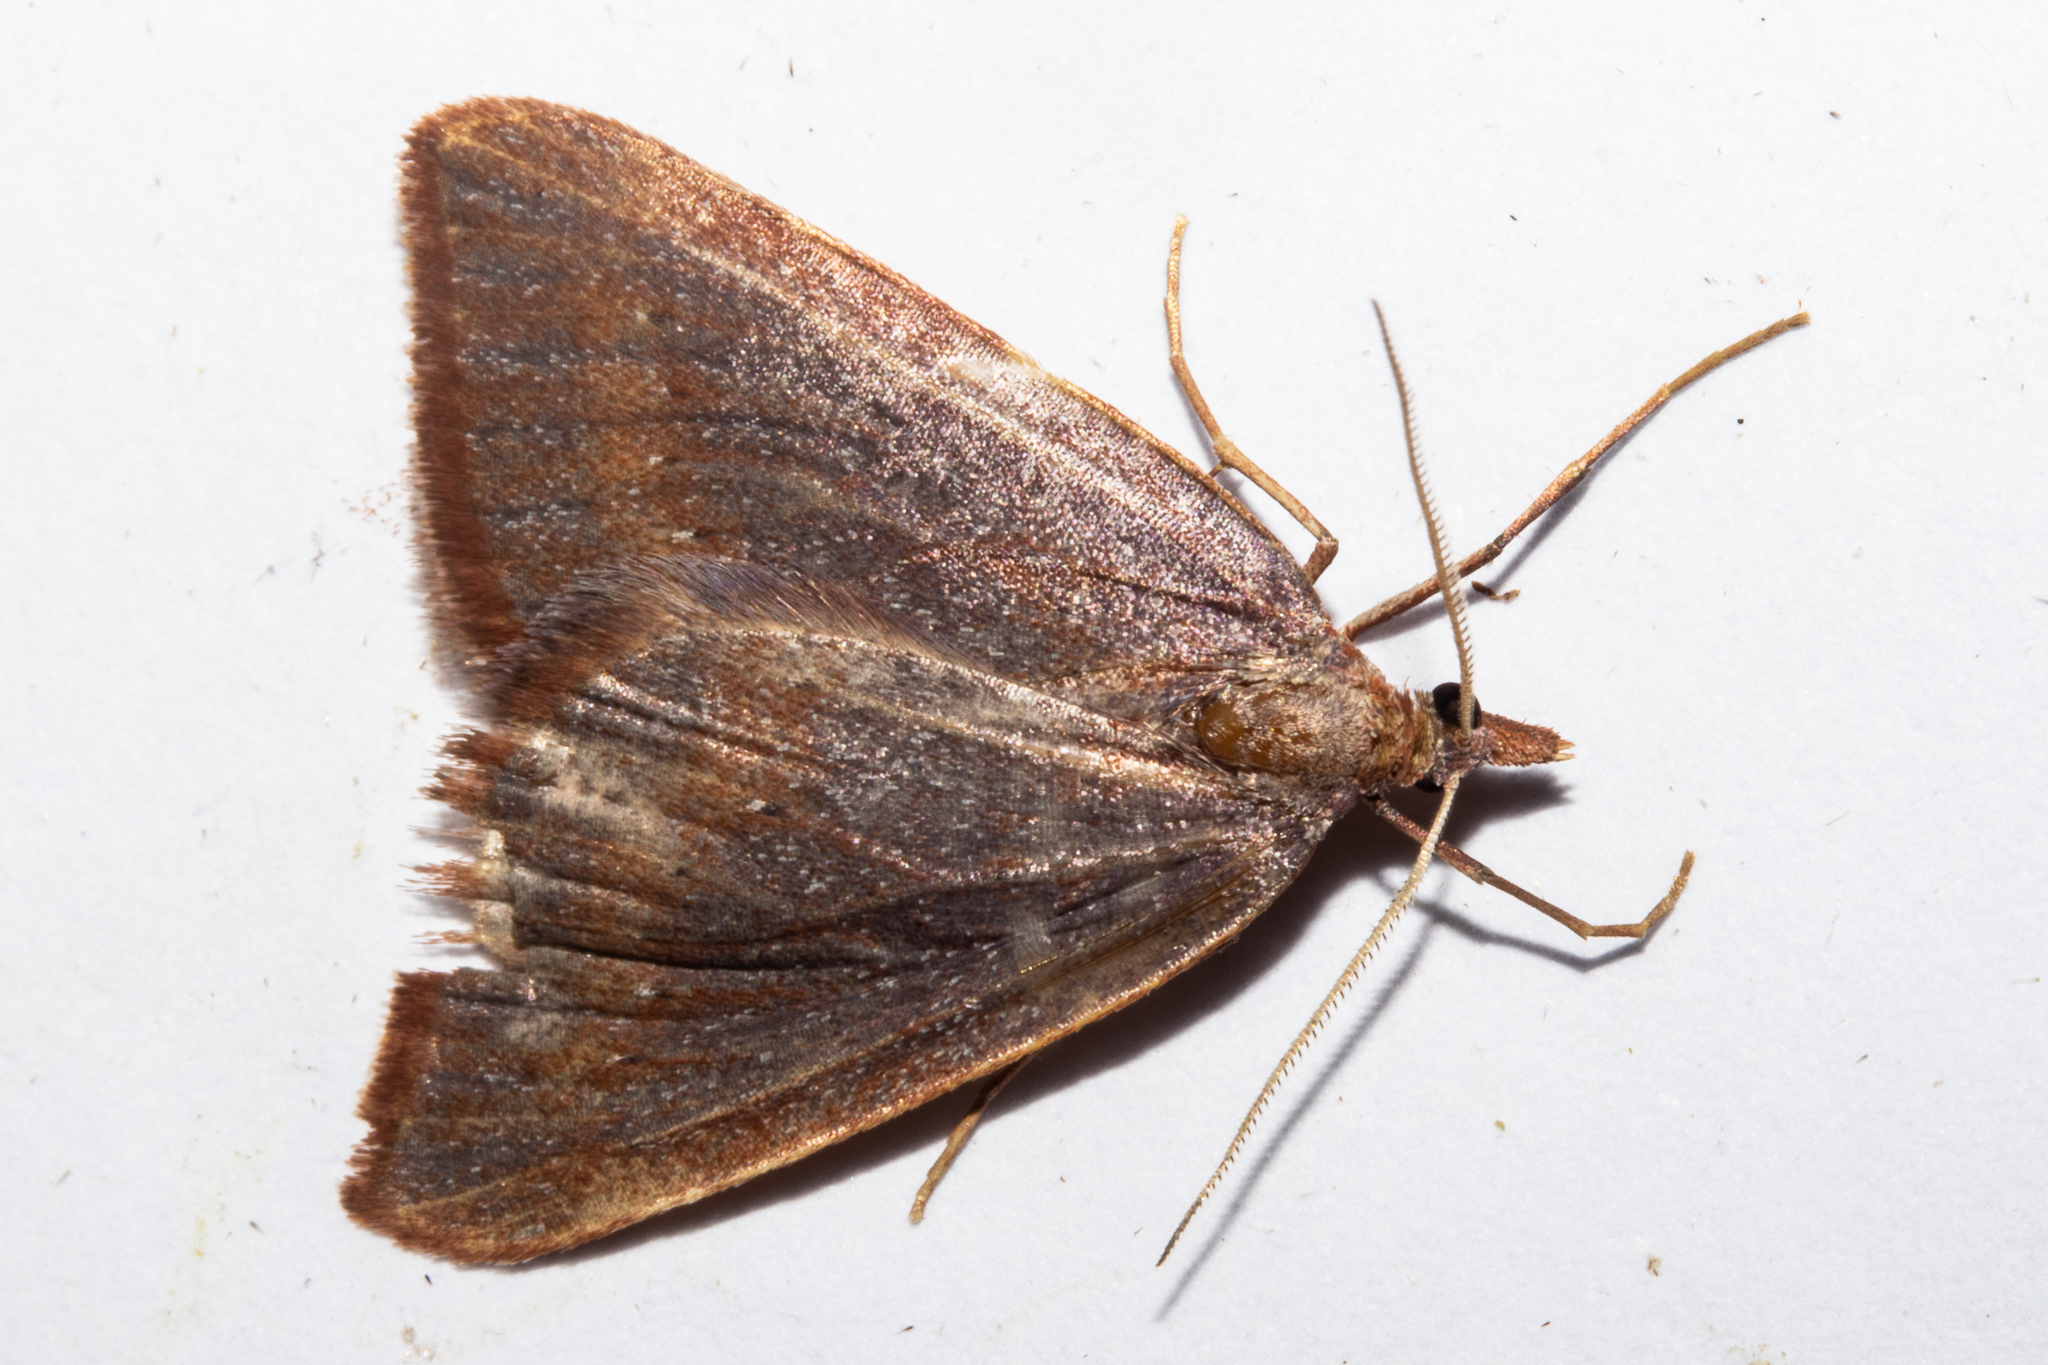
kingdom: Animalia
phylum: Arthropoda
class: Insecta
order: Lepidoptera
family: Geometridae
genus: Xanthorhoe
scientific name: Xanthorhoe occulta
